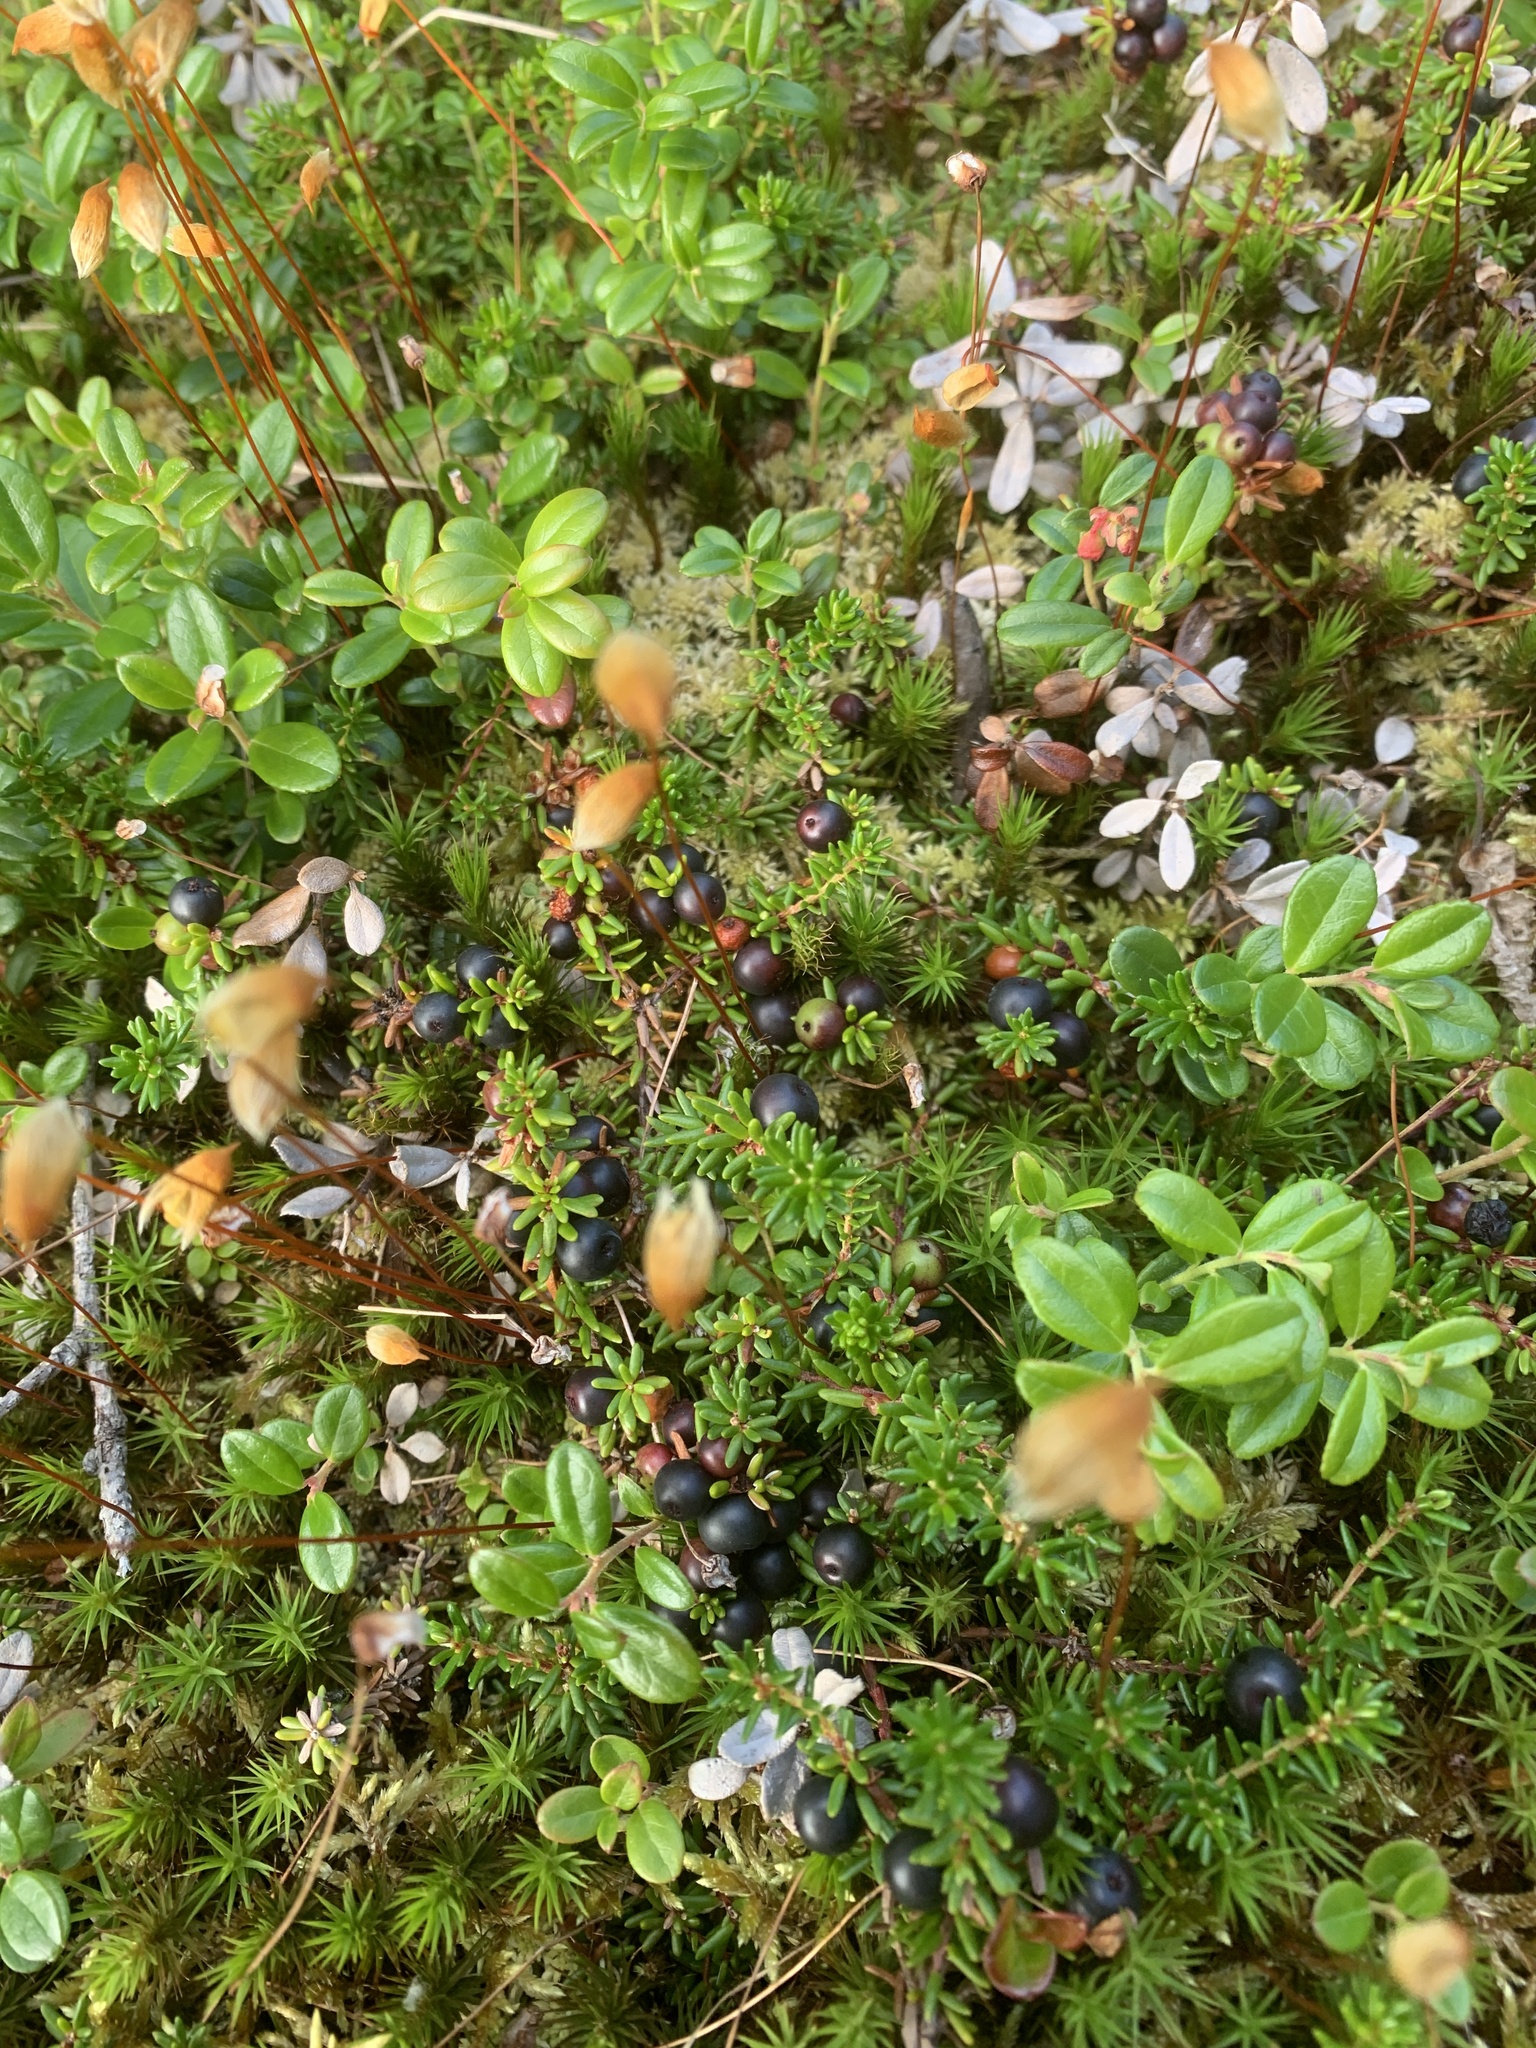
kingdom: Plantae
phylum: Tracheophyta
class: Magnoliopsida
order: Ericales
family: Ericaceae
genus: Empetrum
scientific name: Empetrum nigrum
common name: Black crowberry
